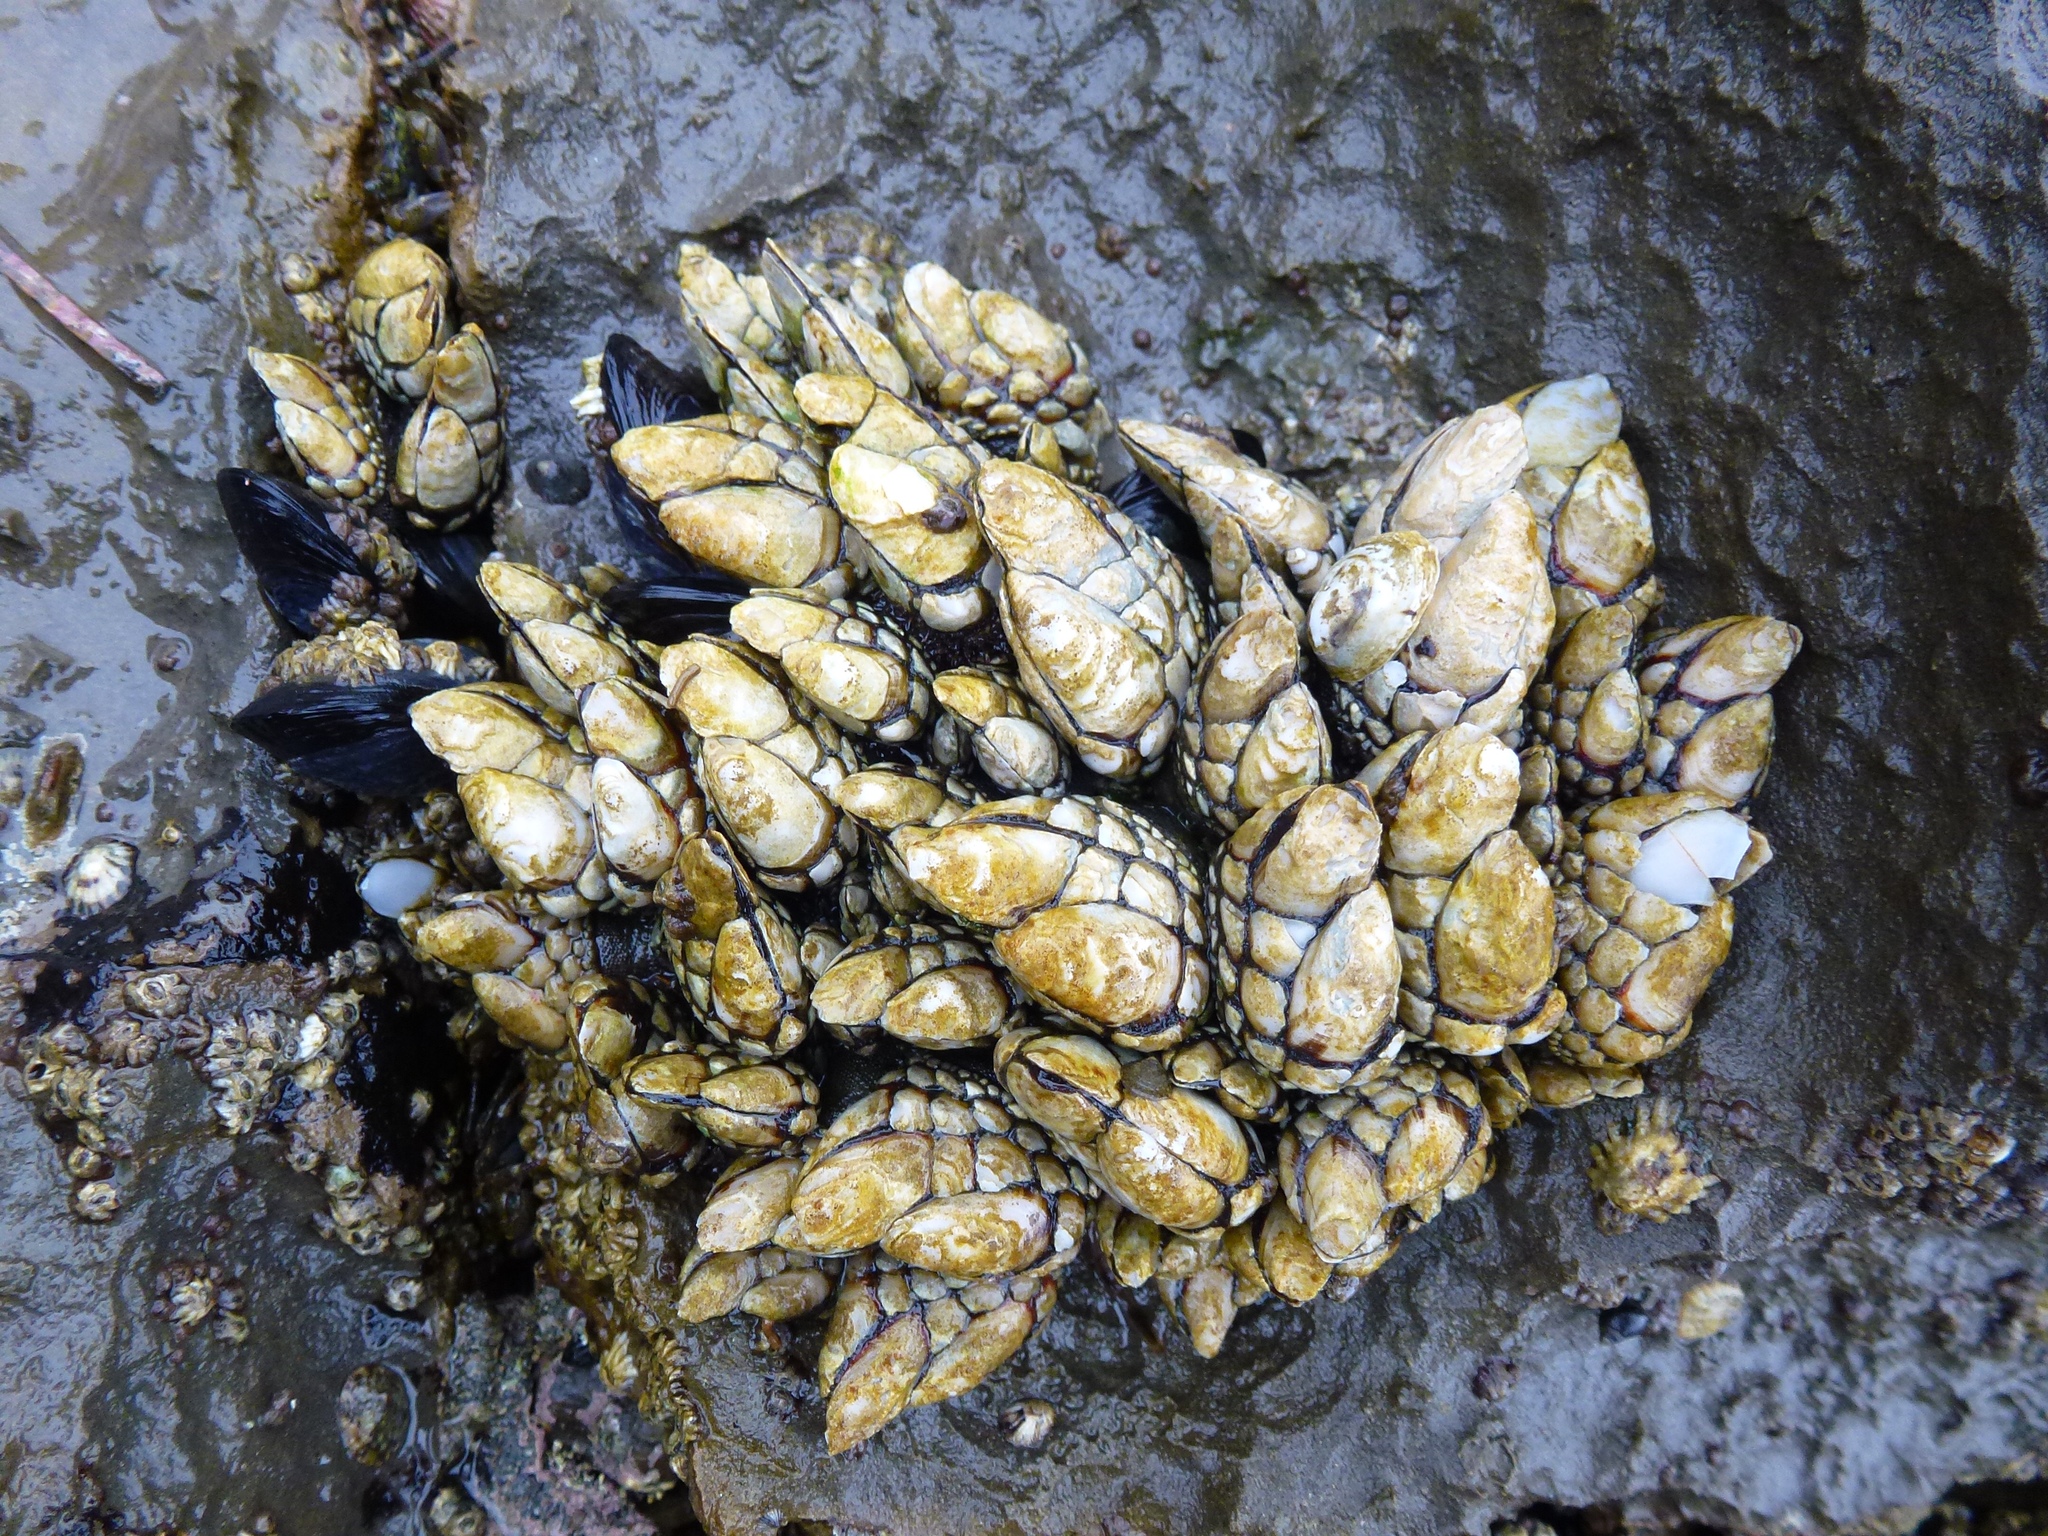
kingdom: Animalia
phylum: Arthropoda
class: Maxillopoda
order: Pedunculata
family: Pollicipedidae
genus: Pollicipes
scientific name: Pollicipes polymerus
